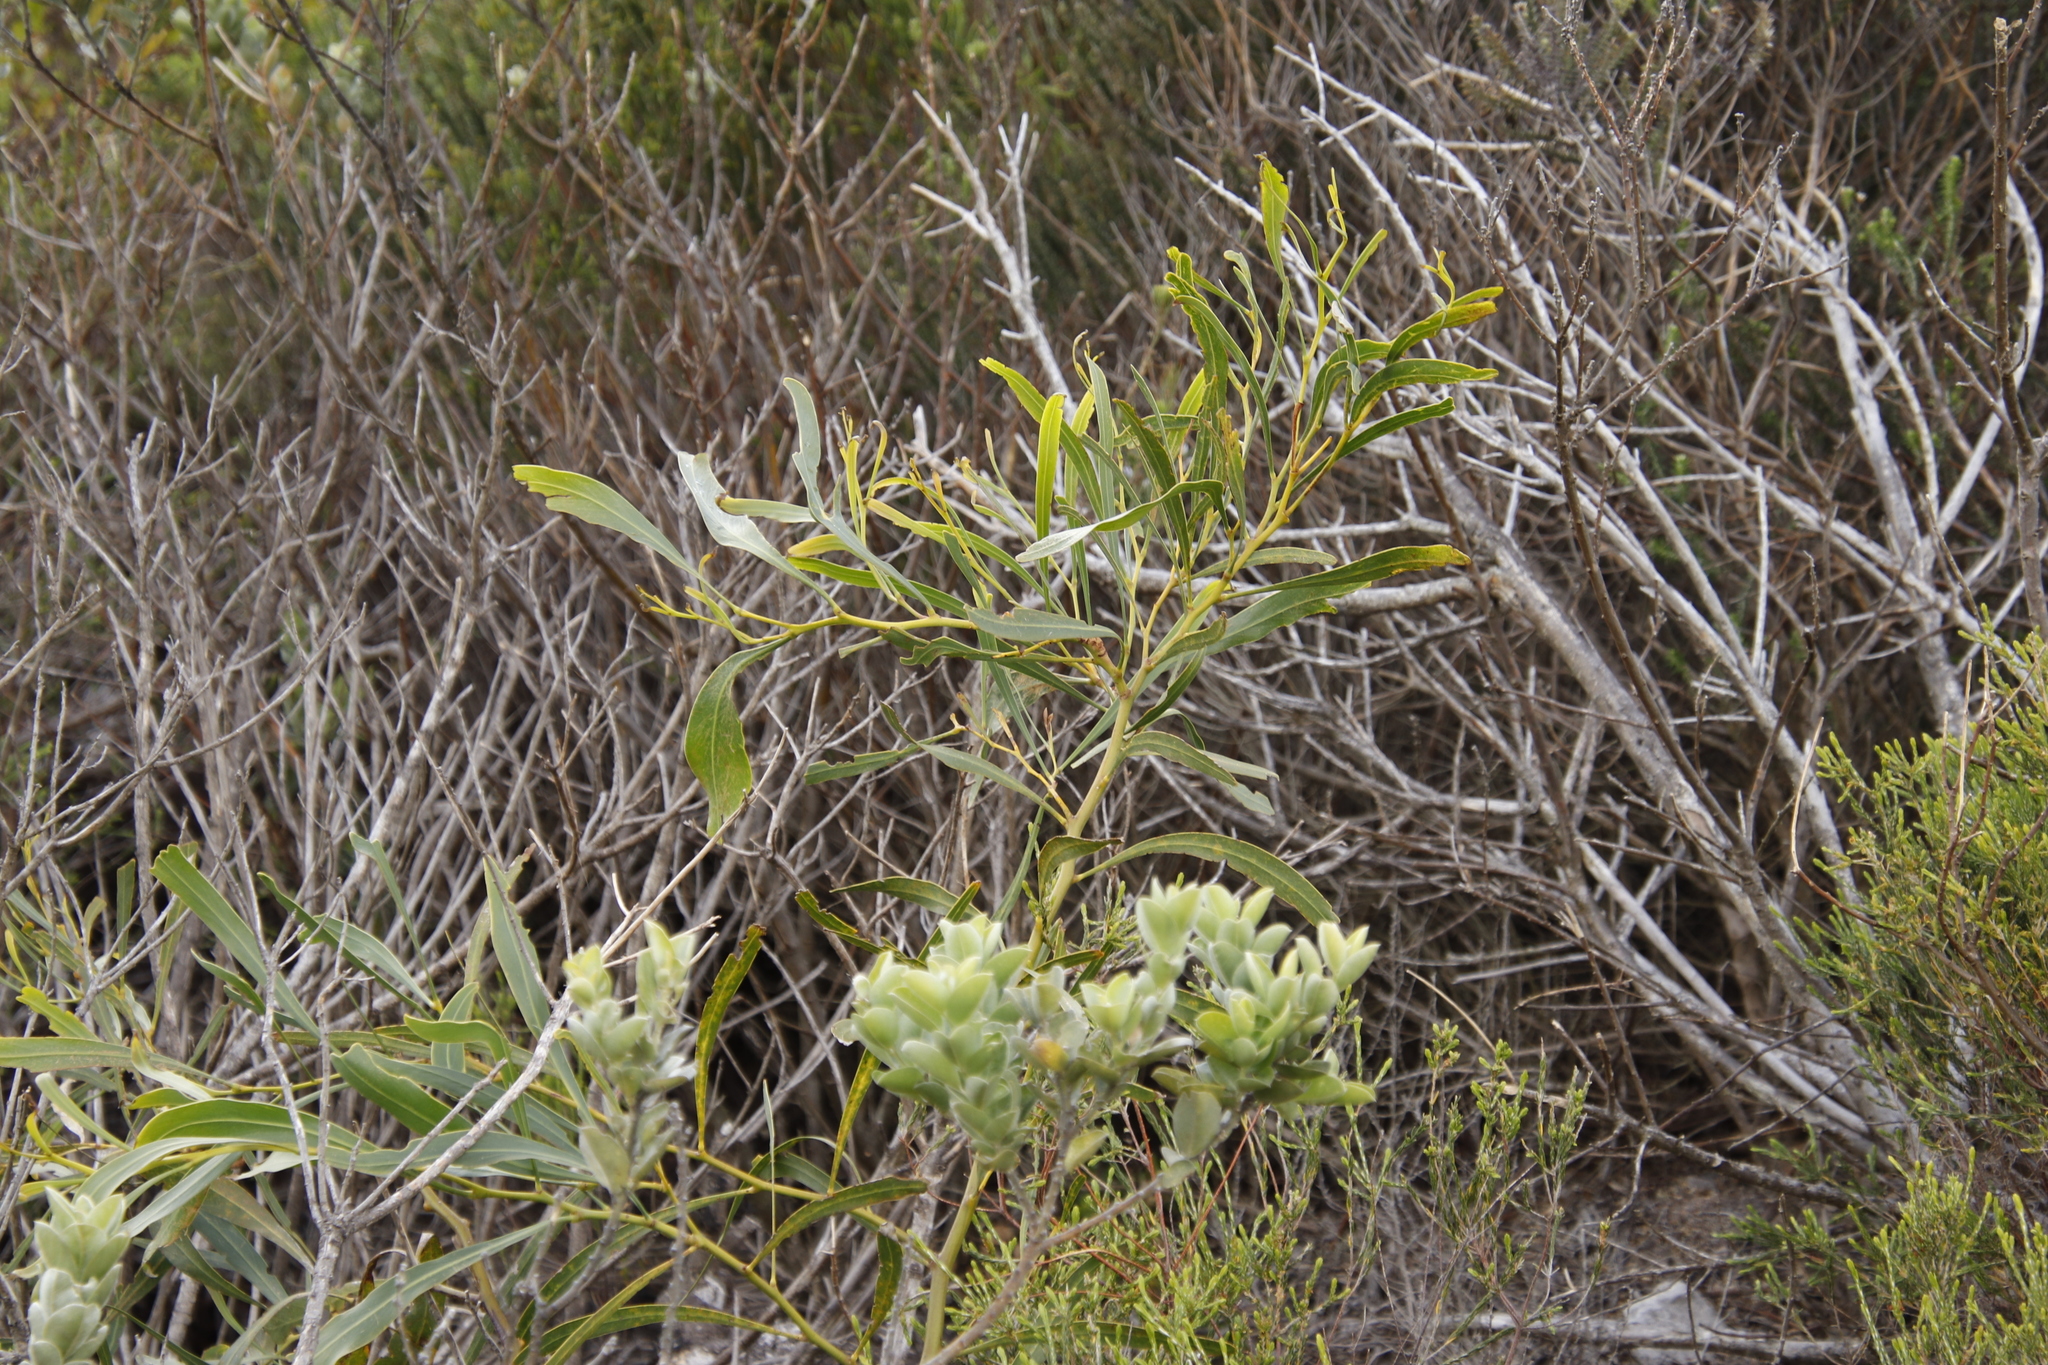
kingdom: Plantae
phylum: Tracheophyta
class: Magnoliopsida
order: Fabales
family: Fabaceae
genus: Acacia
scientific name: Acacia saligna
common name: Orange wattle
